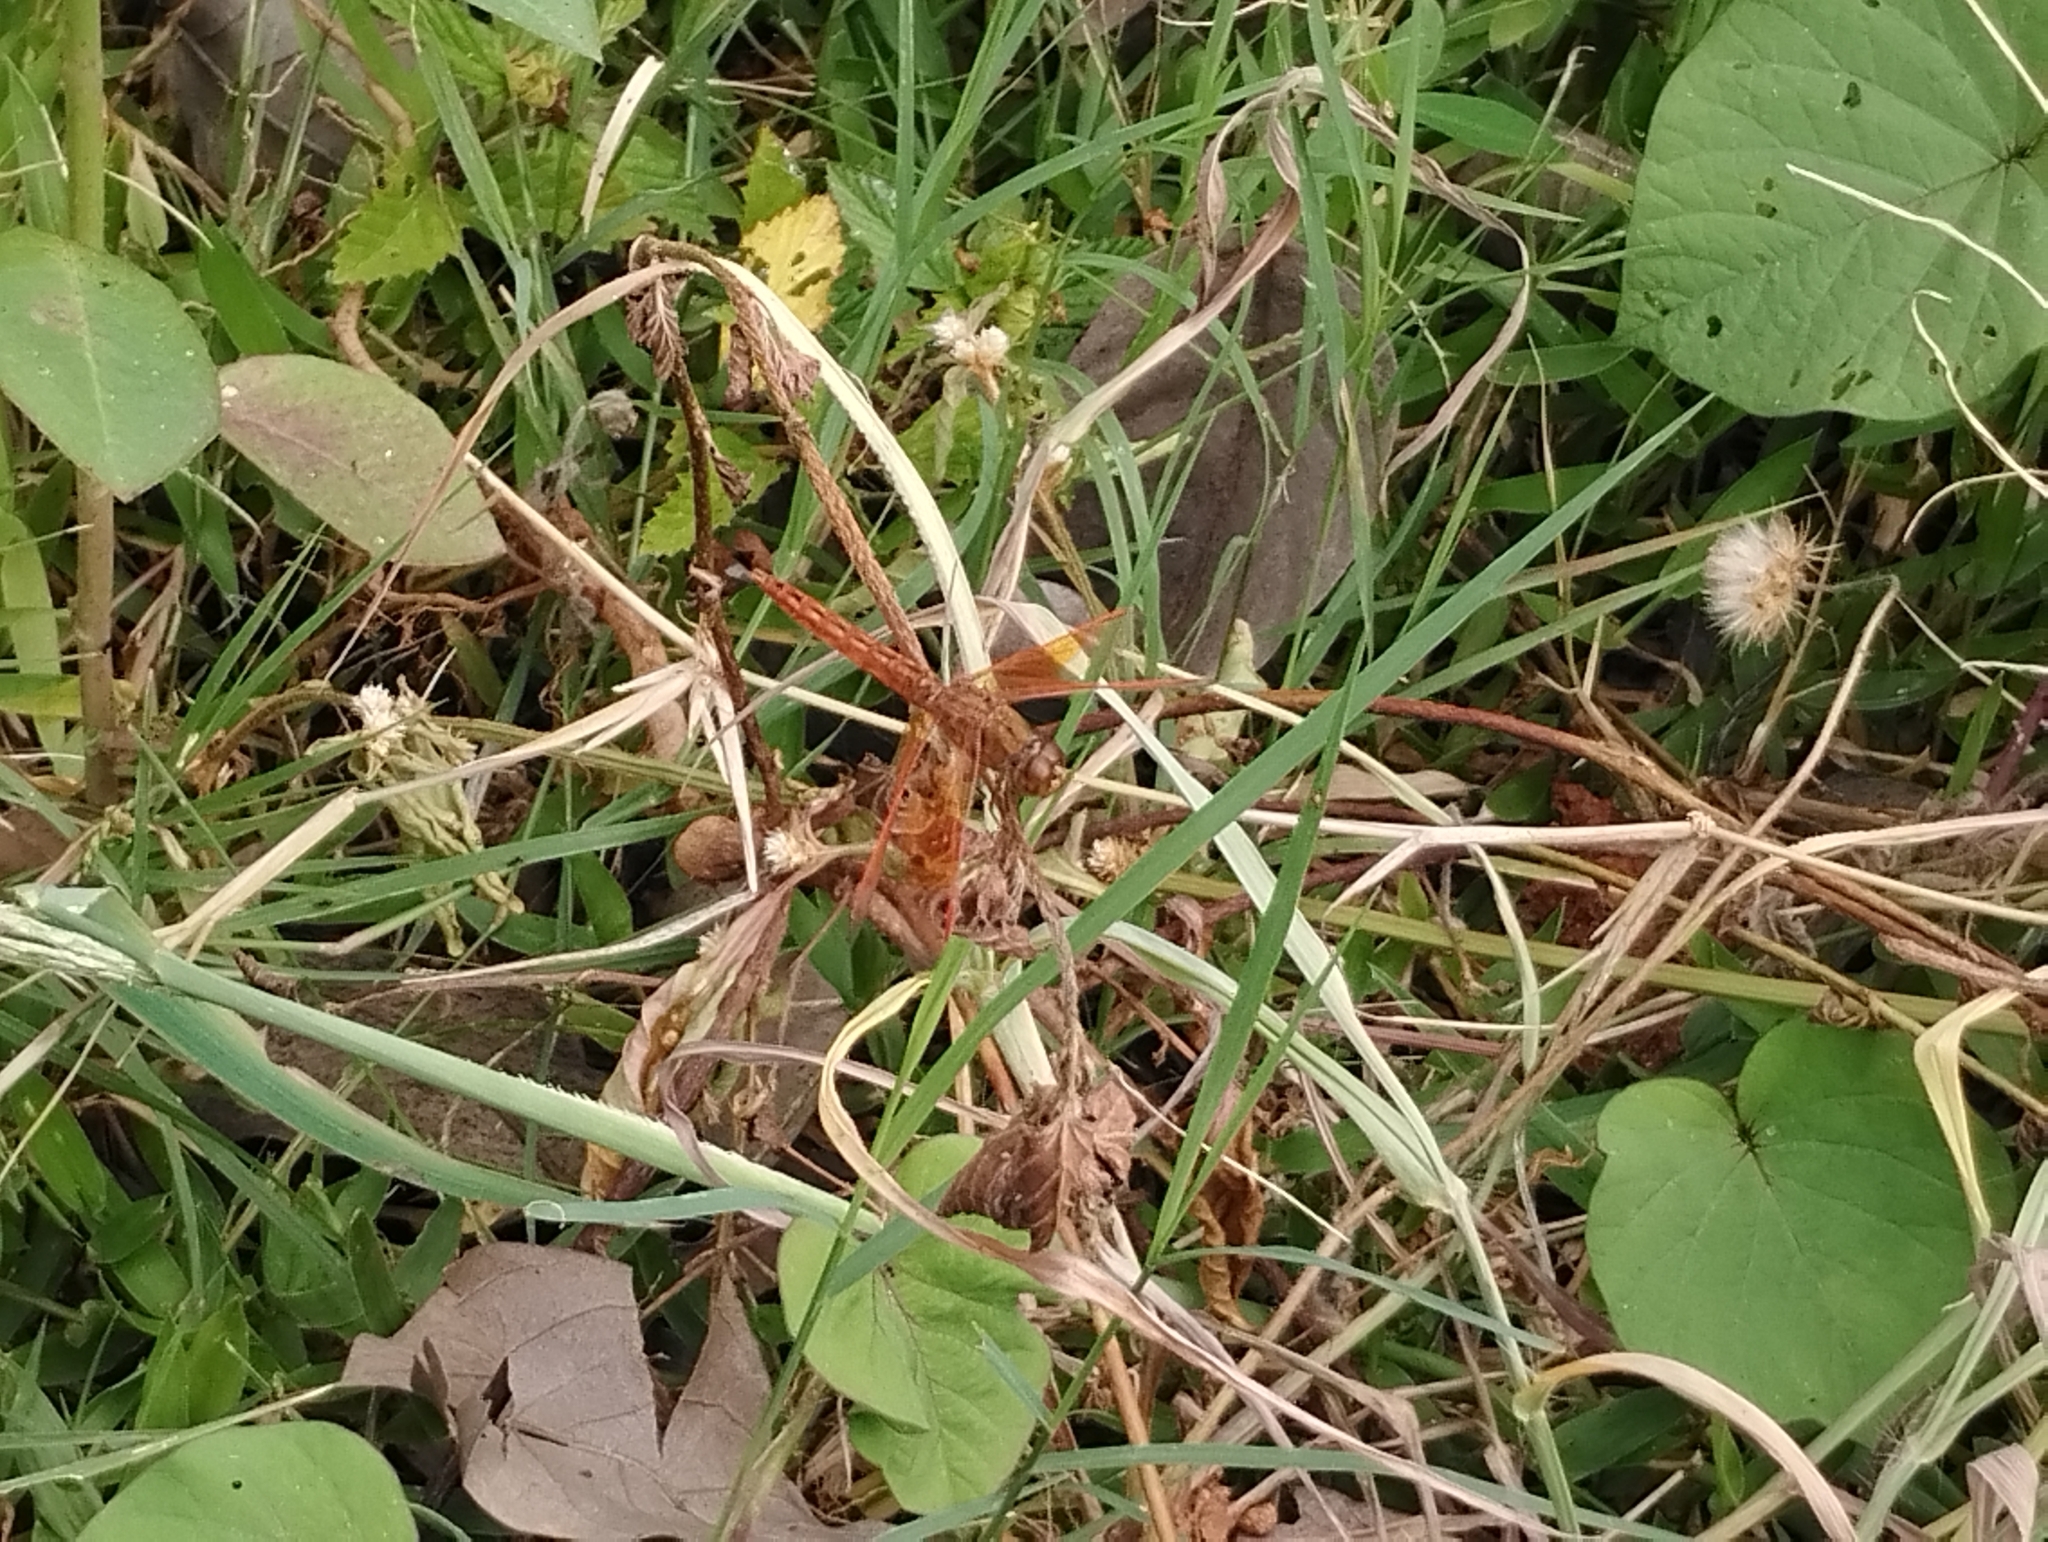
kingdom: Animalia
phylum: Arthropoda
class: Insecta
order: Odonata
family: Libellulidae
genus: Brachythemis
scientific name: Brachythemis contaminata
